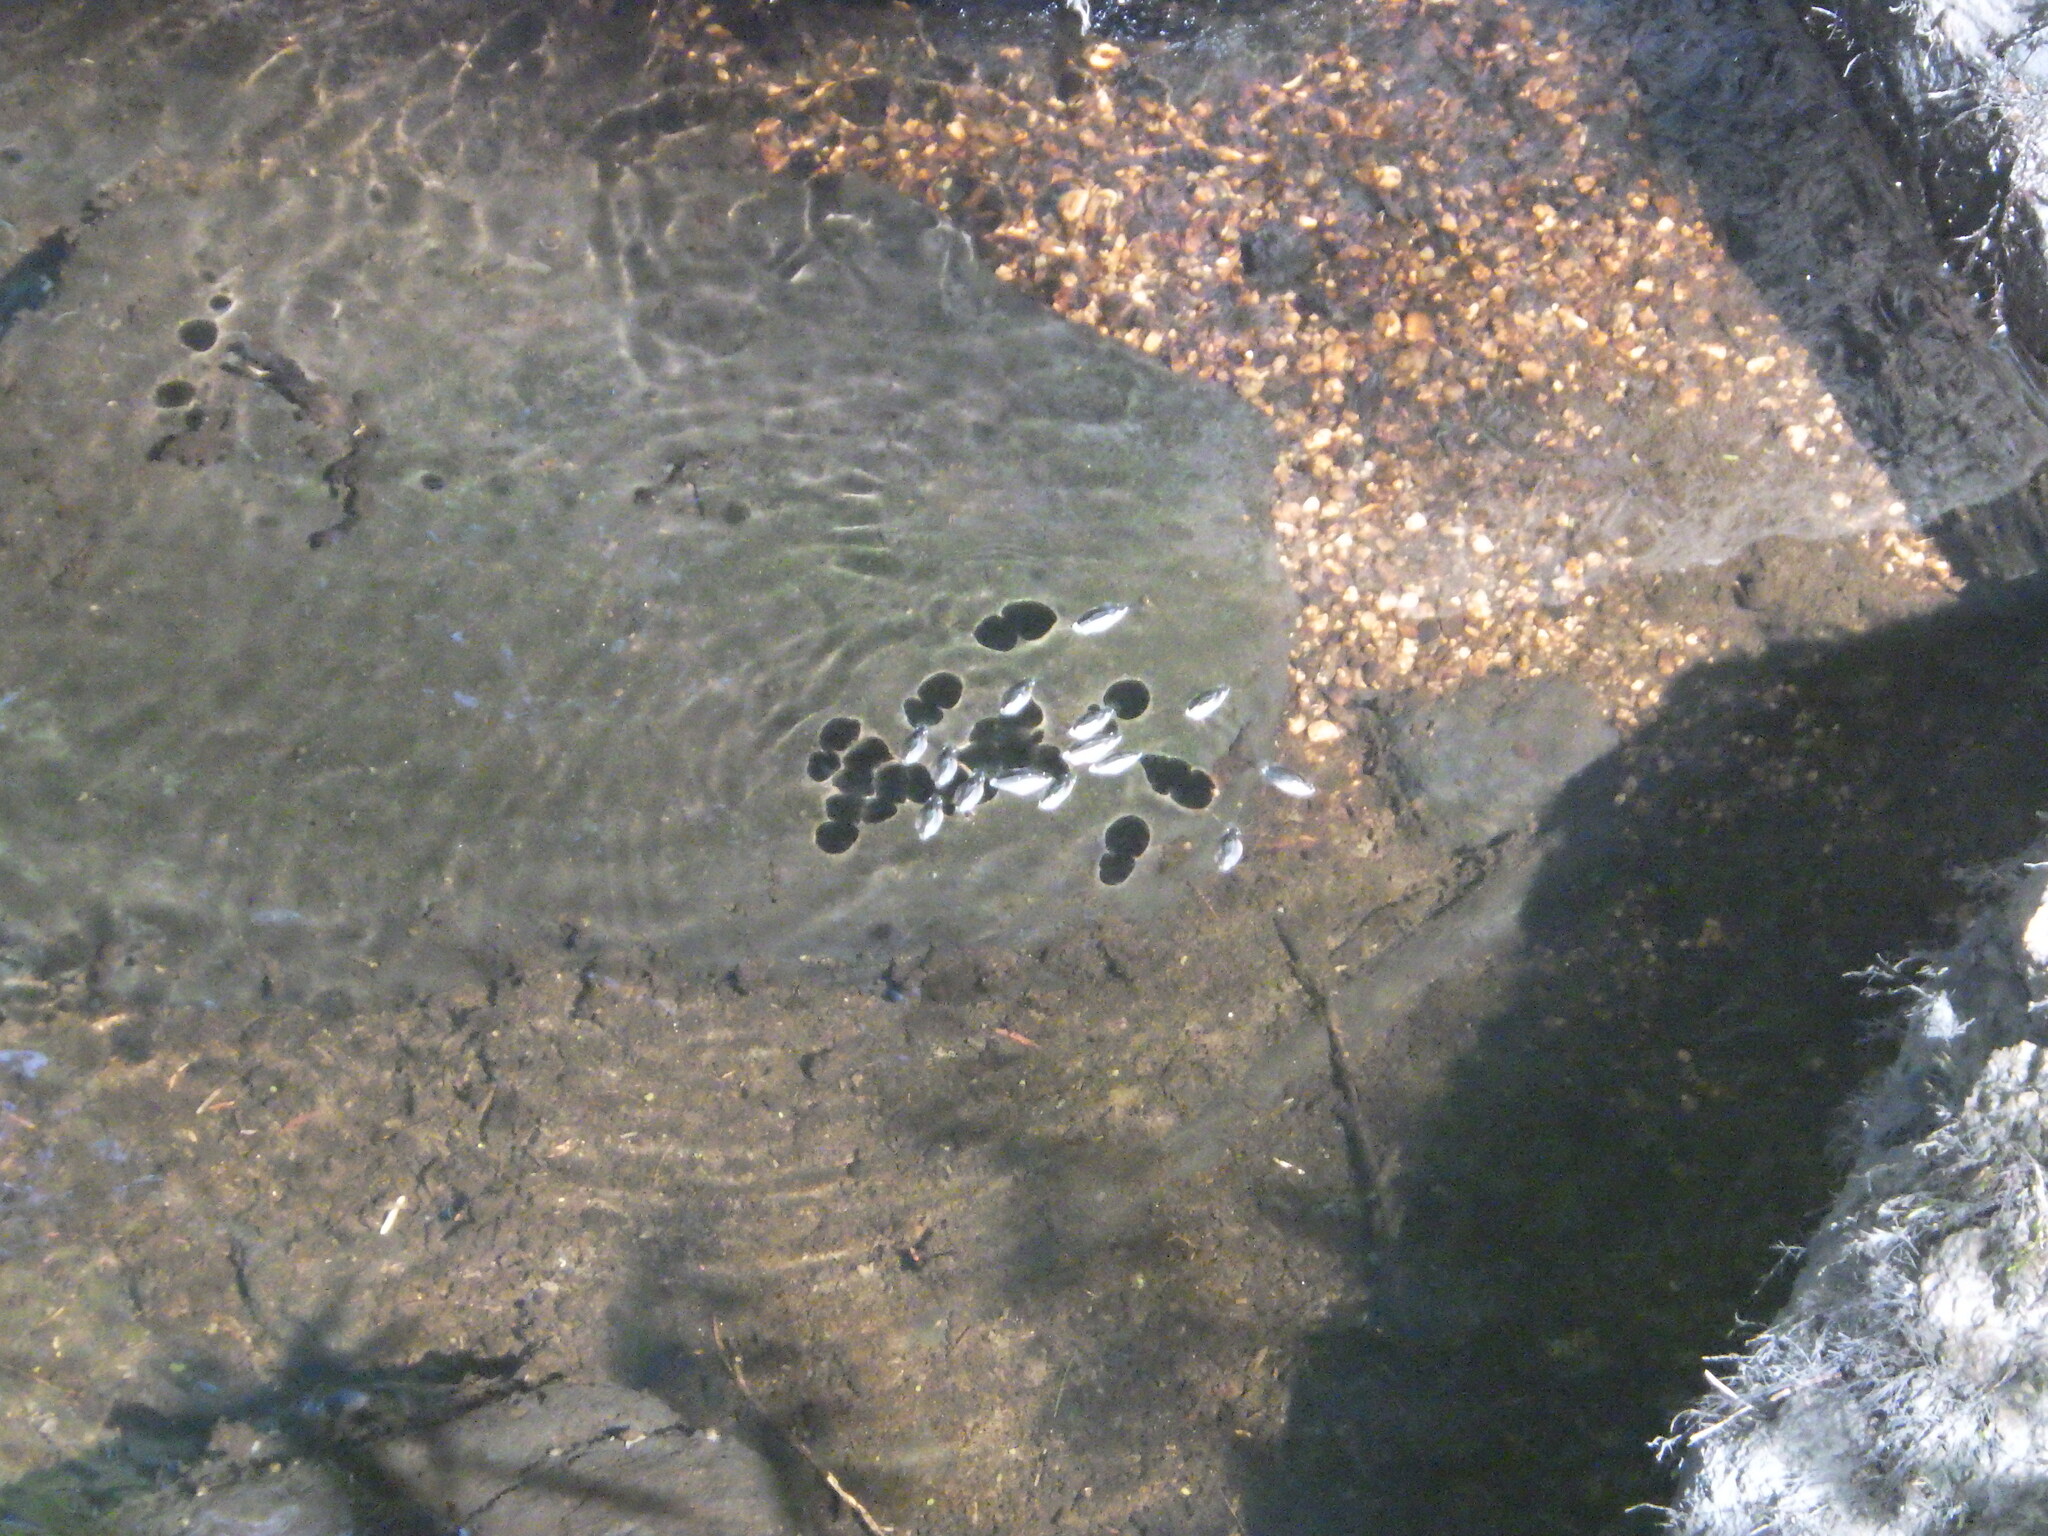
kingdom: Animalia
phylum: Arthropoda
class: Insecta
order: Coleoptera
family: Gyrinidae
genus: Dineutus
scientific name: Dineutus
